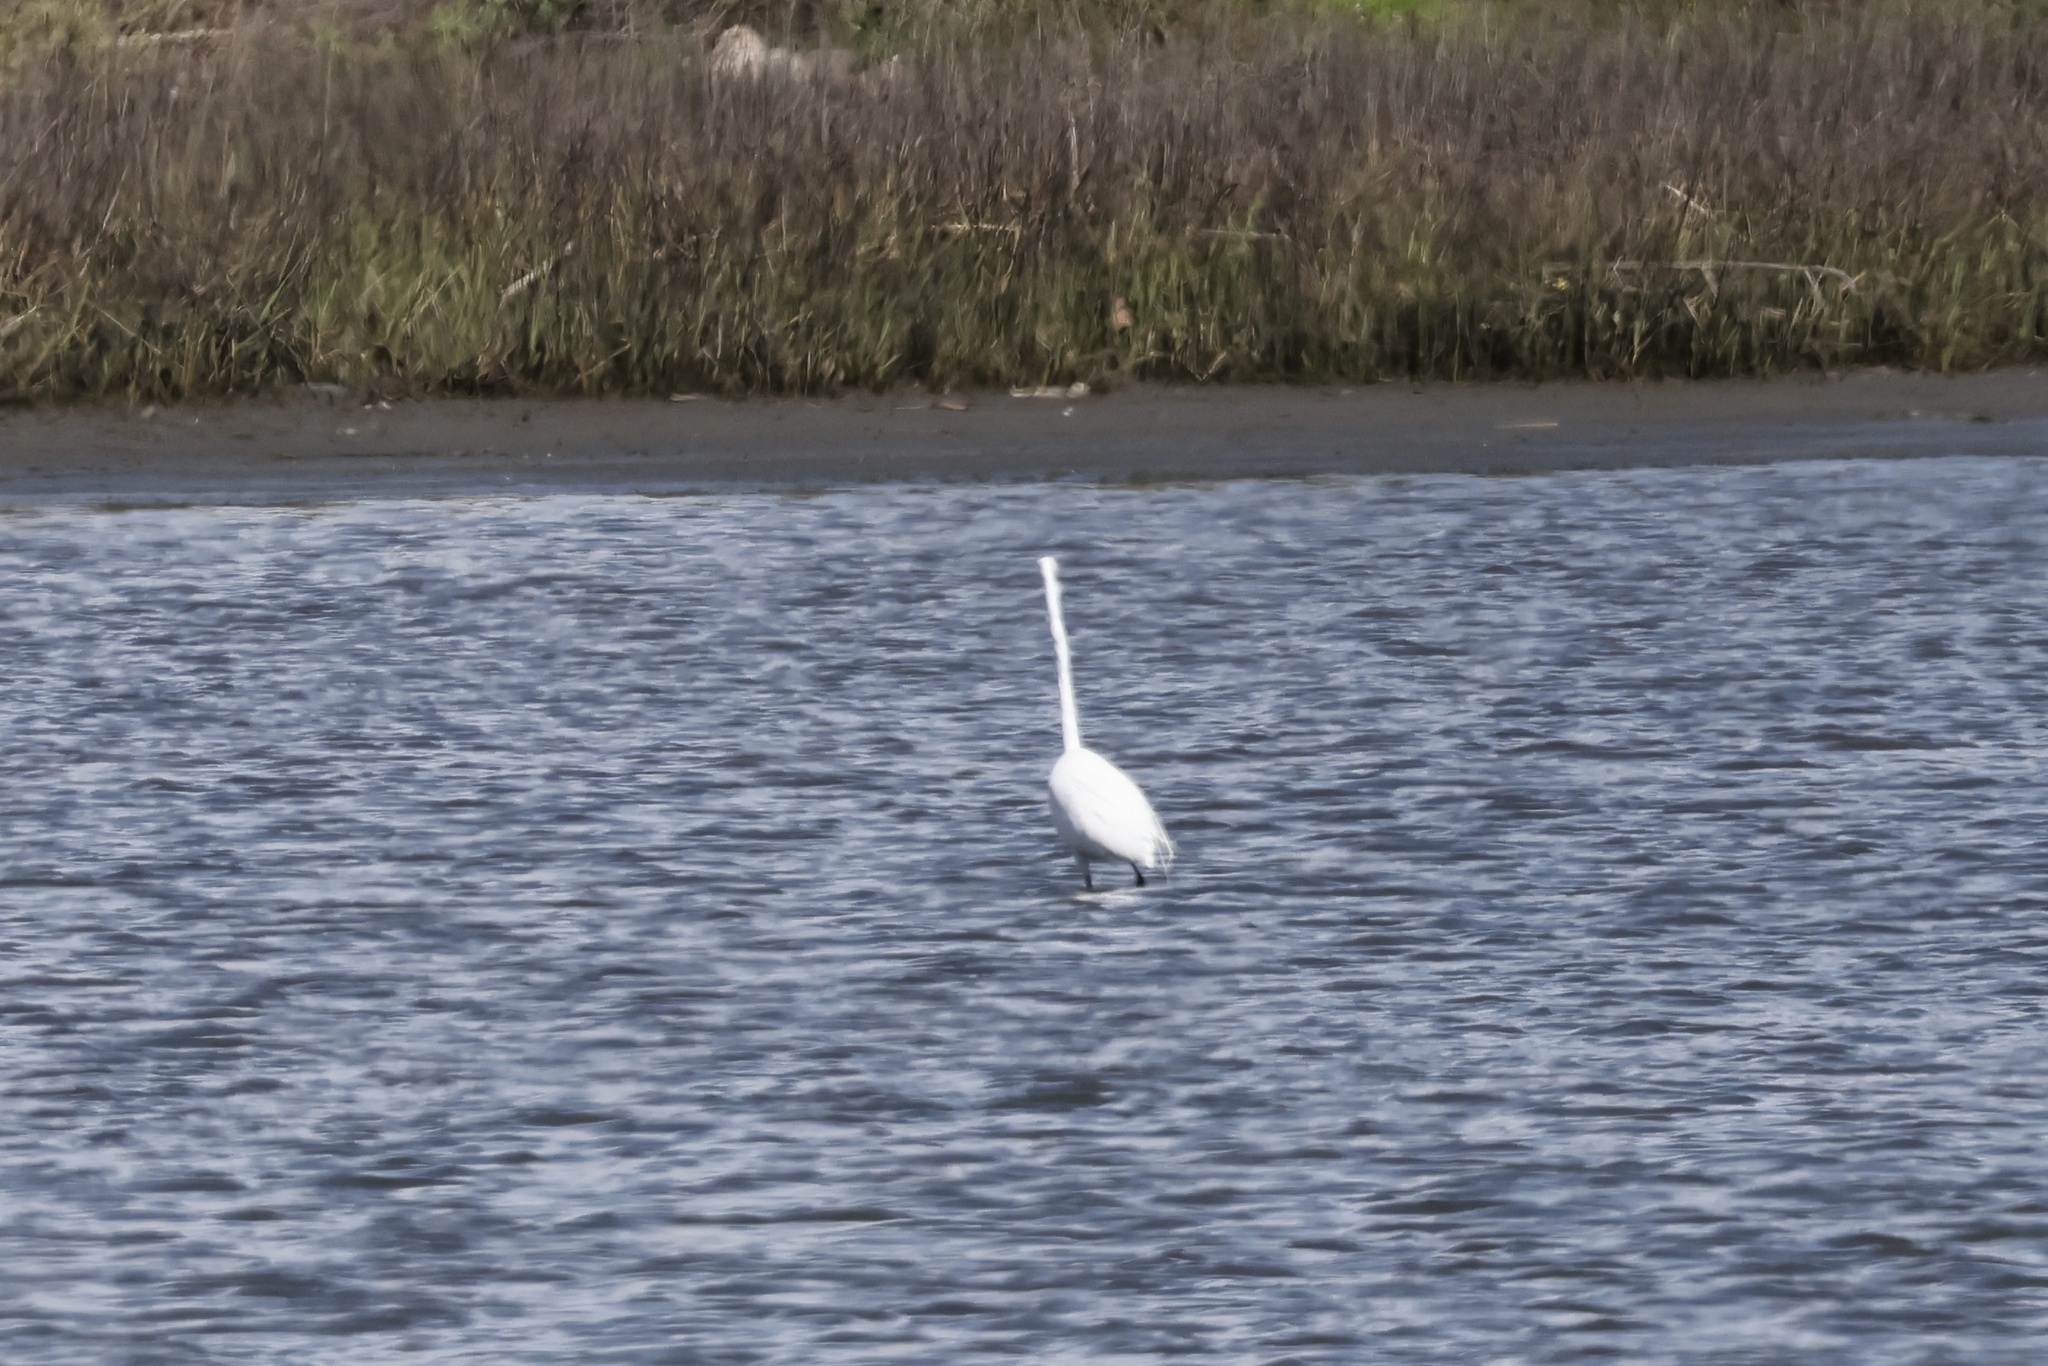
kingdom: Animalia
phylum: Chordata
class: Aves
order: Pelecaniformes
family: Ardeidae
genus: Ardea
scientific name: Ardea alba
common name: Great egret
